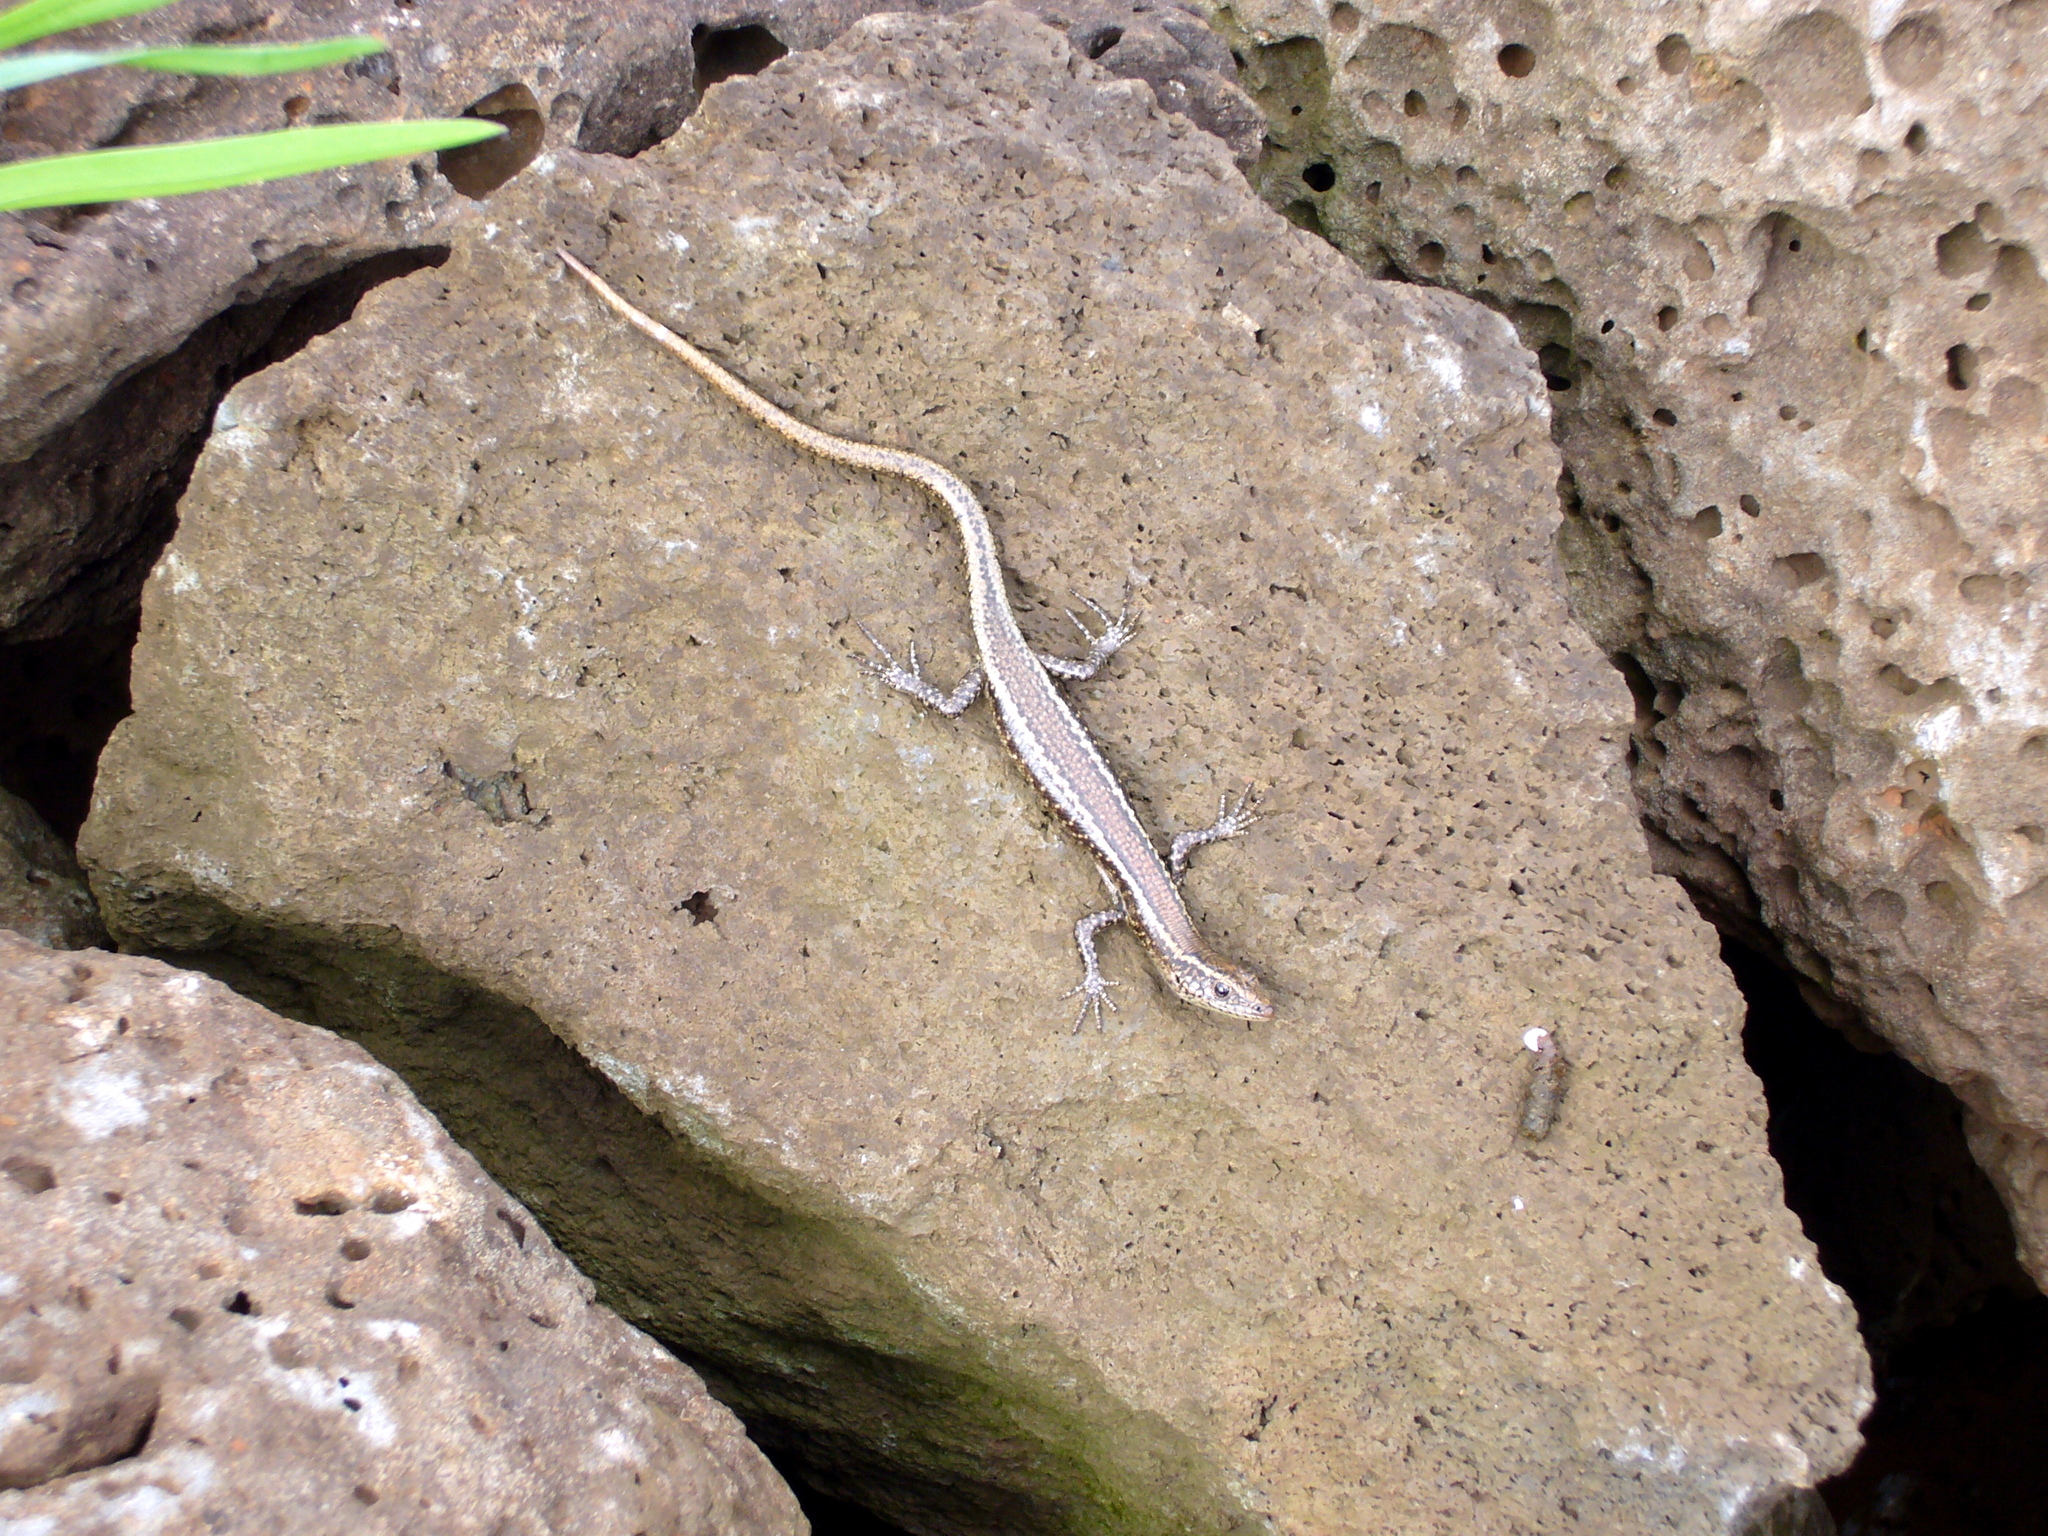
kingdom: Animalia
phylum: Chordata
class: Squamata
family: Scincidae
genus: Cryptoblepharus
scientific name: Cryptoblepharus poecilopleurus
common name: Mottled snake-eyed skink
